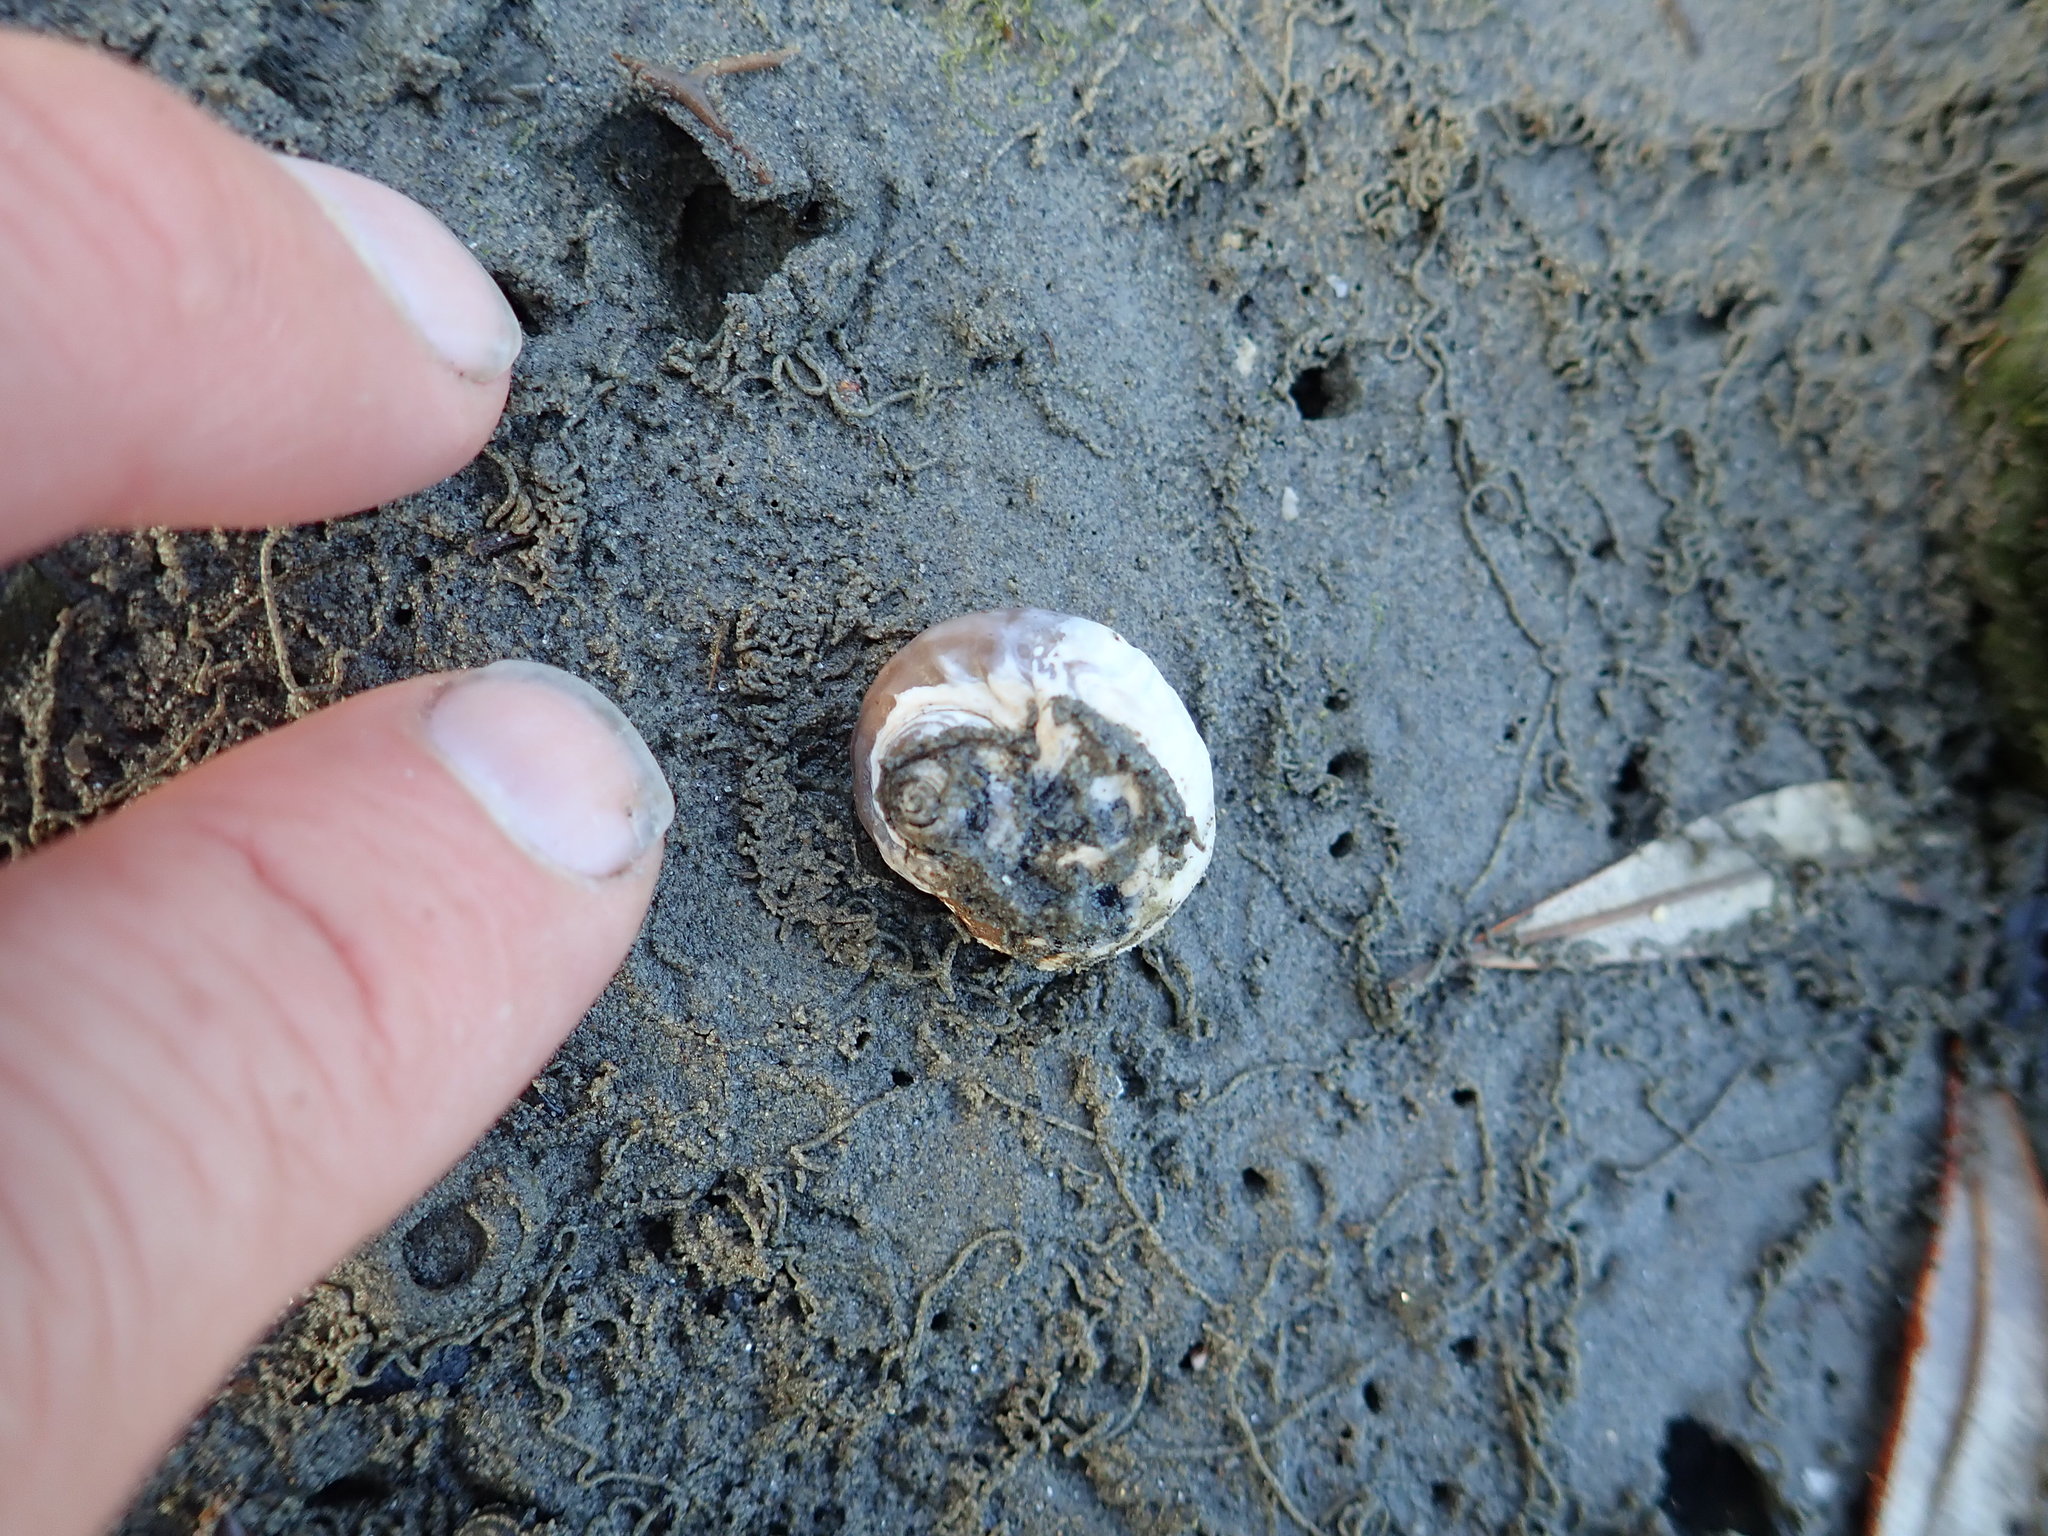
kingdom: Animalia
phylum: Mollusca
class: Gastropoda
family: Amphibolidae
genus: Amphibola
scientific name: Amphibola crenata
